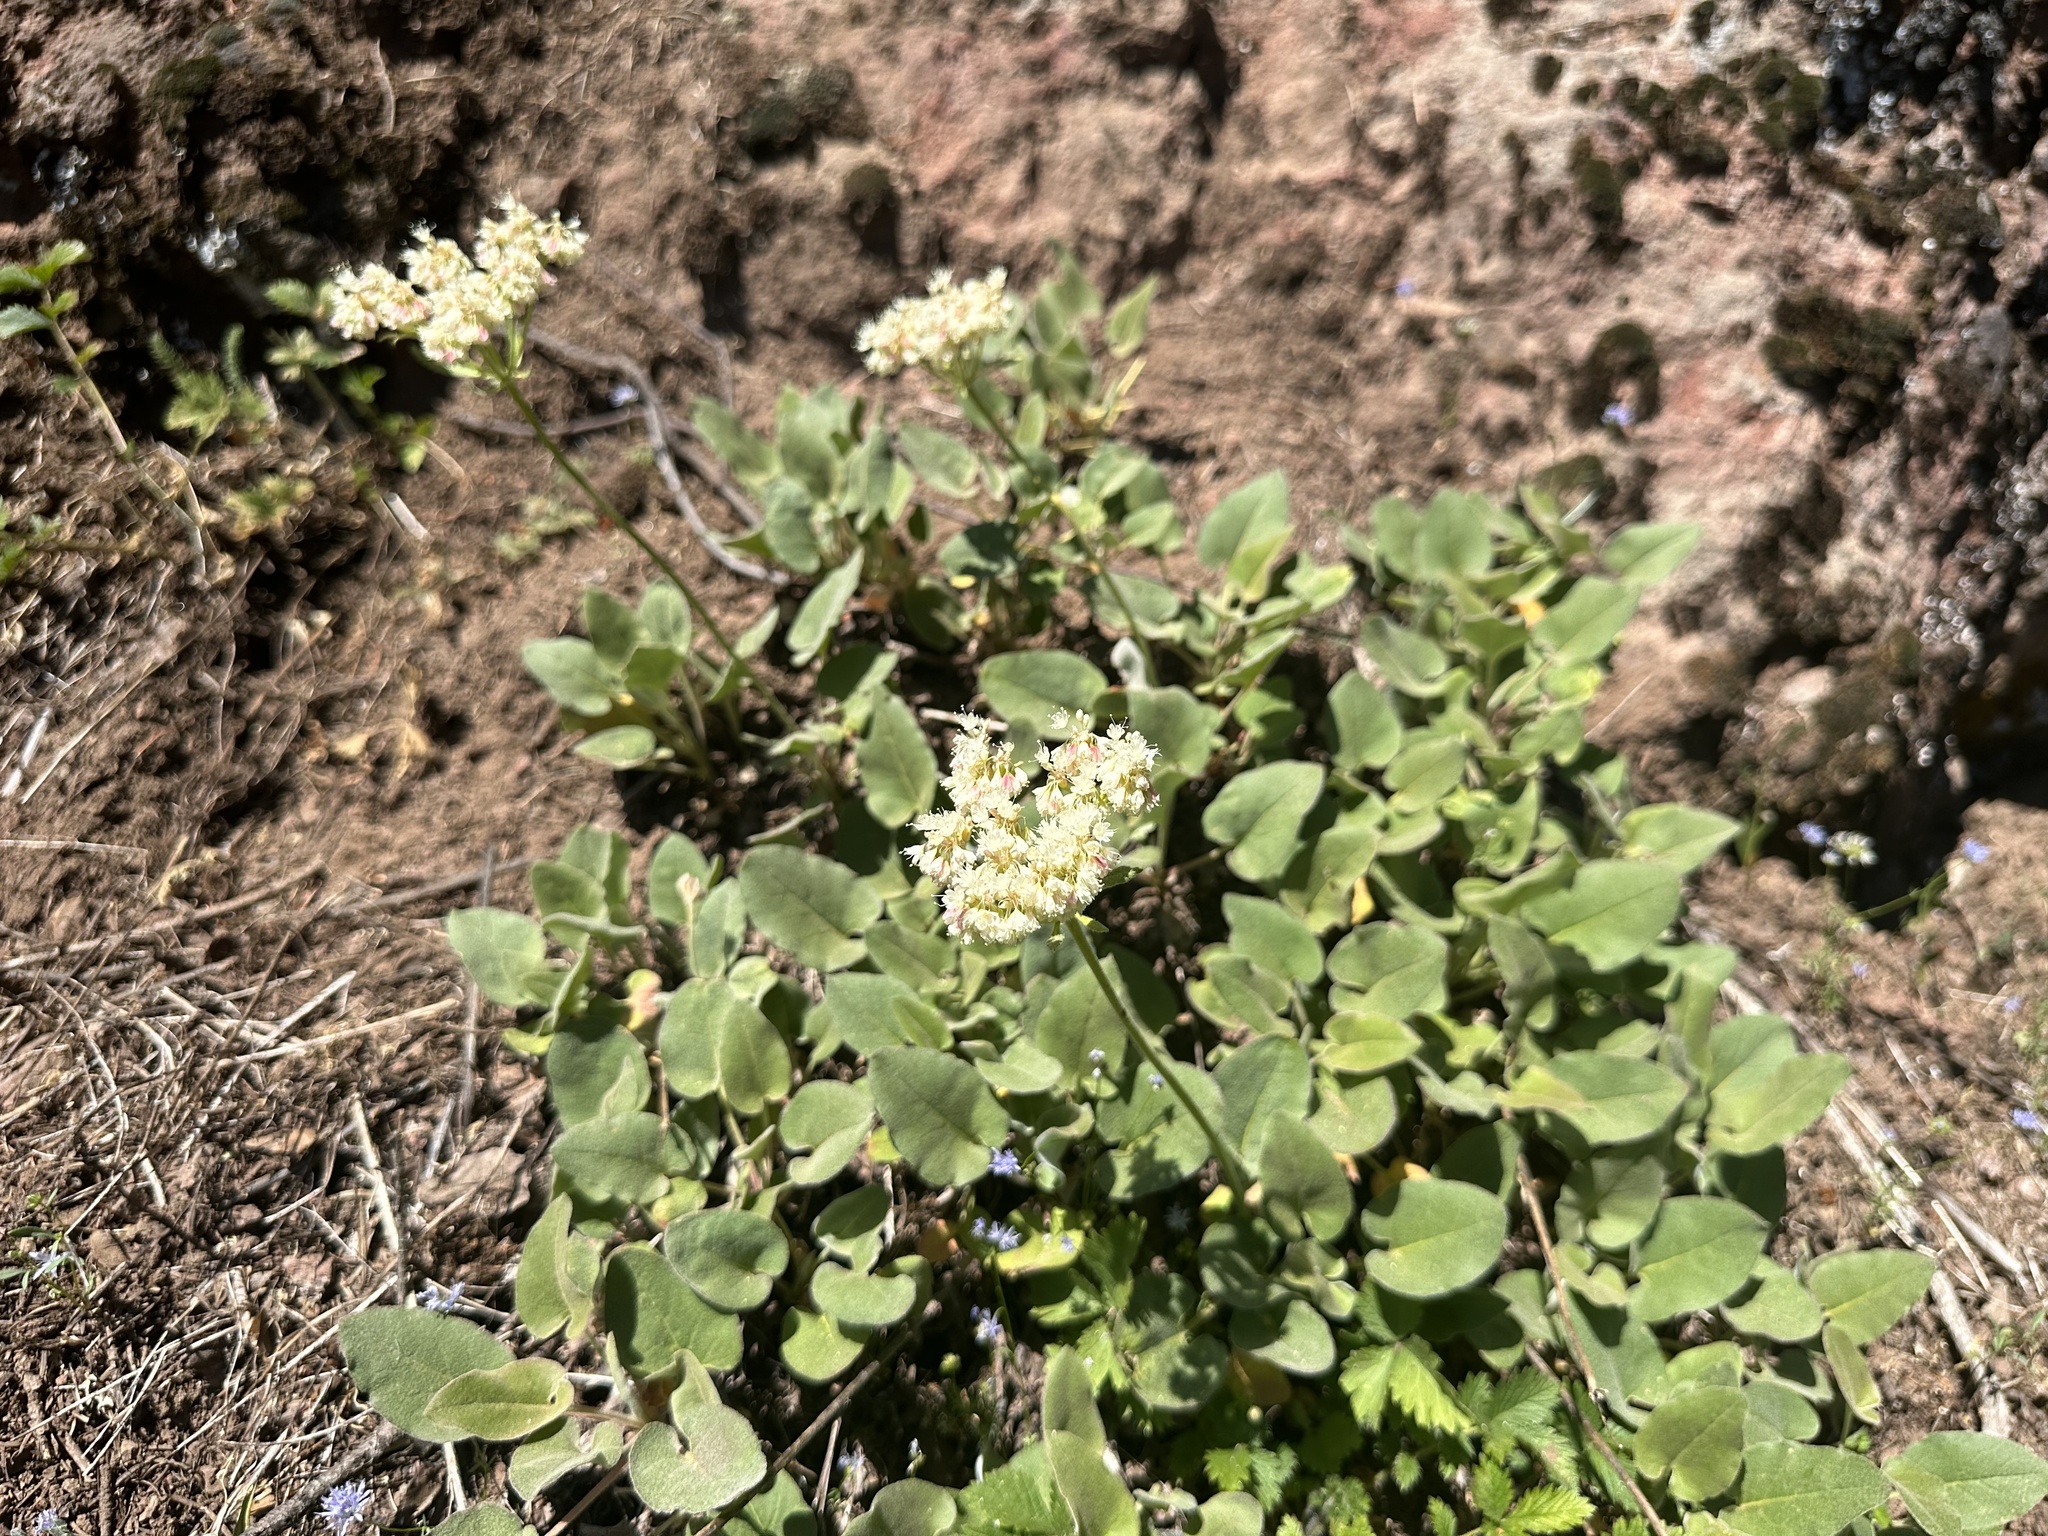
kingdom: Plantae
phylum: Tracheophyta
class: Magnoliopsida
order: Caryophyllales
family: Polygonaceae
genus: Eriogonum
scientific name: Eriogonum compositum
